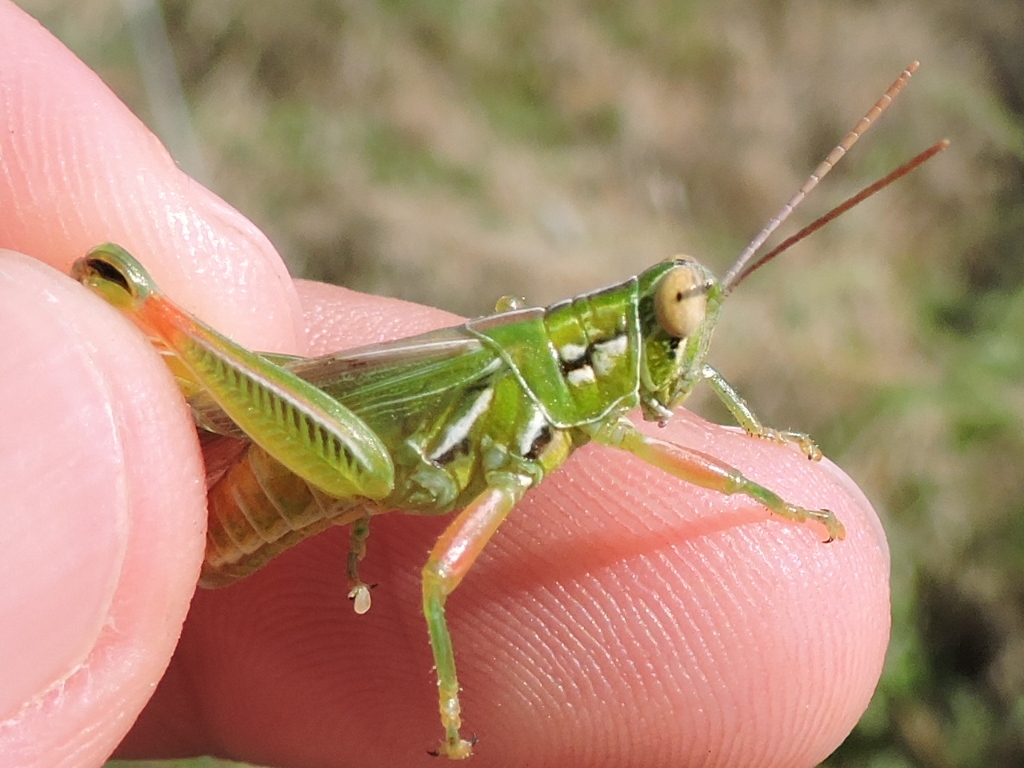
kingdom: Animalia
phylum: Arthropoda
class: Insecta
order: Orthoptera
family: Acrididae
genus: Hesperotettix
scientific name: Hesperotettix viridis
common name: Meadow purple-striped grasshopper
